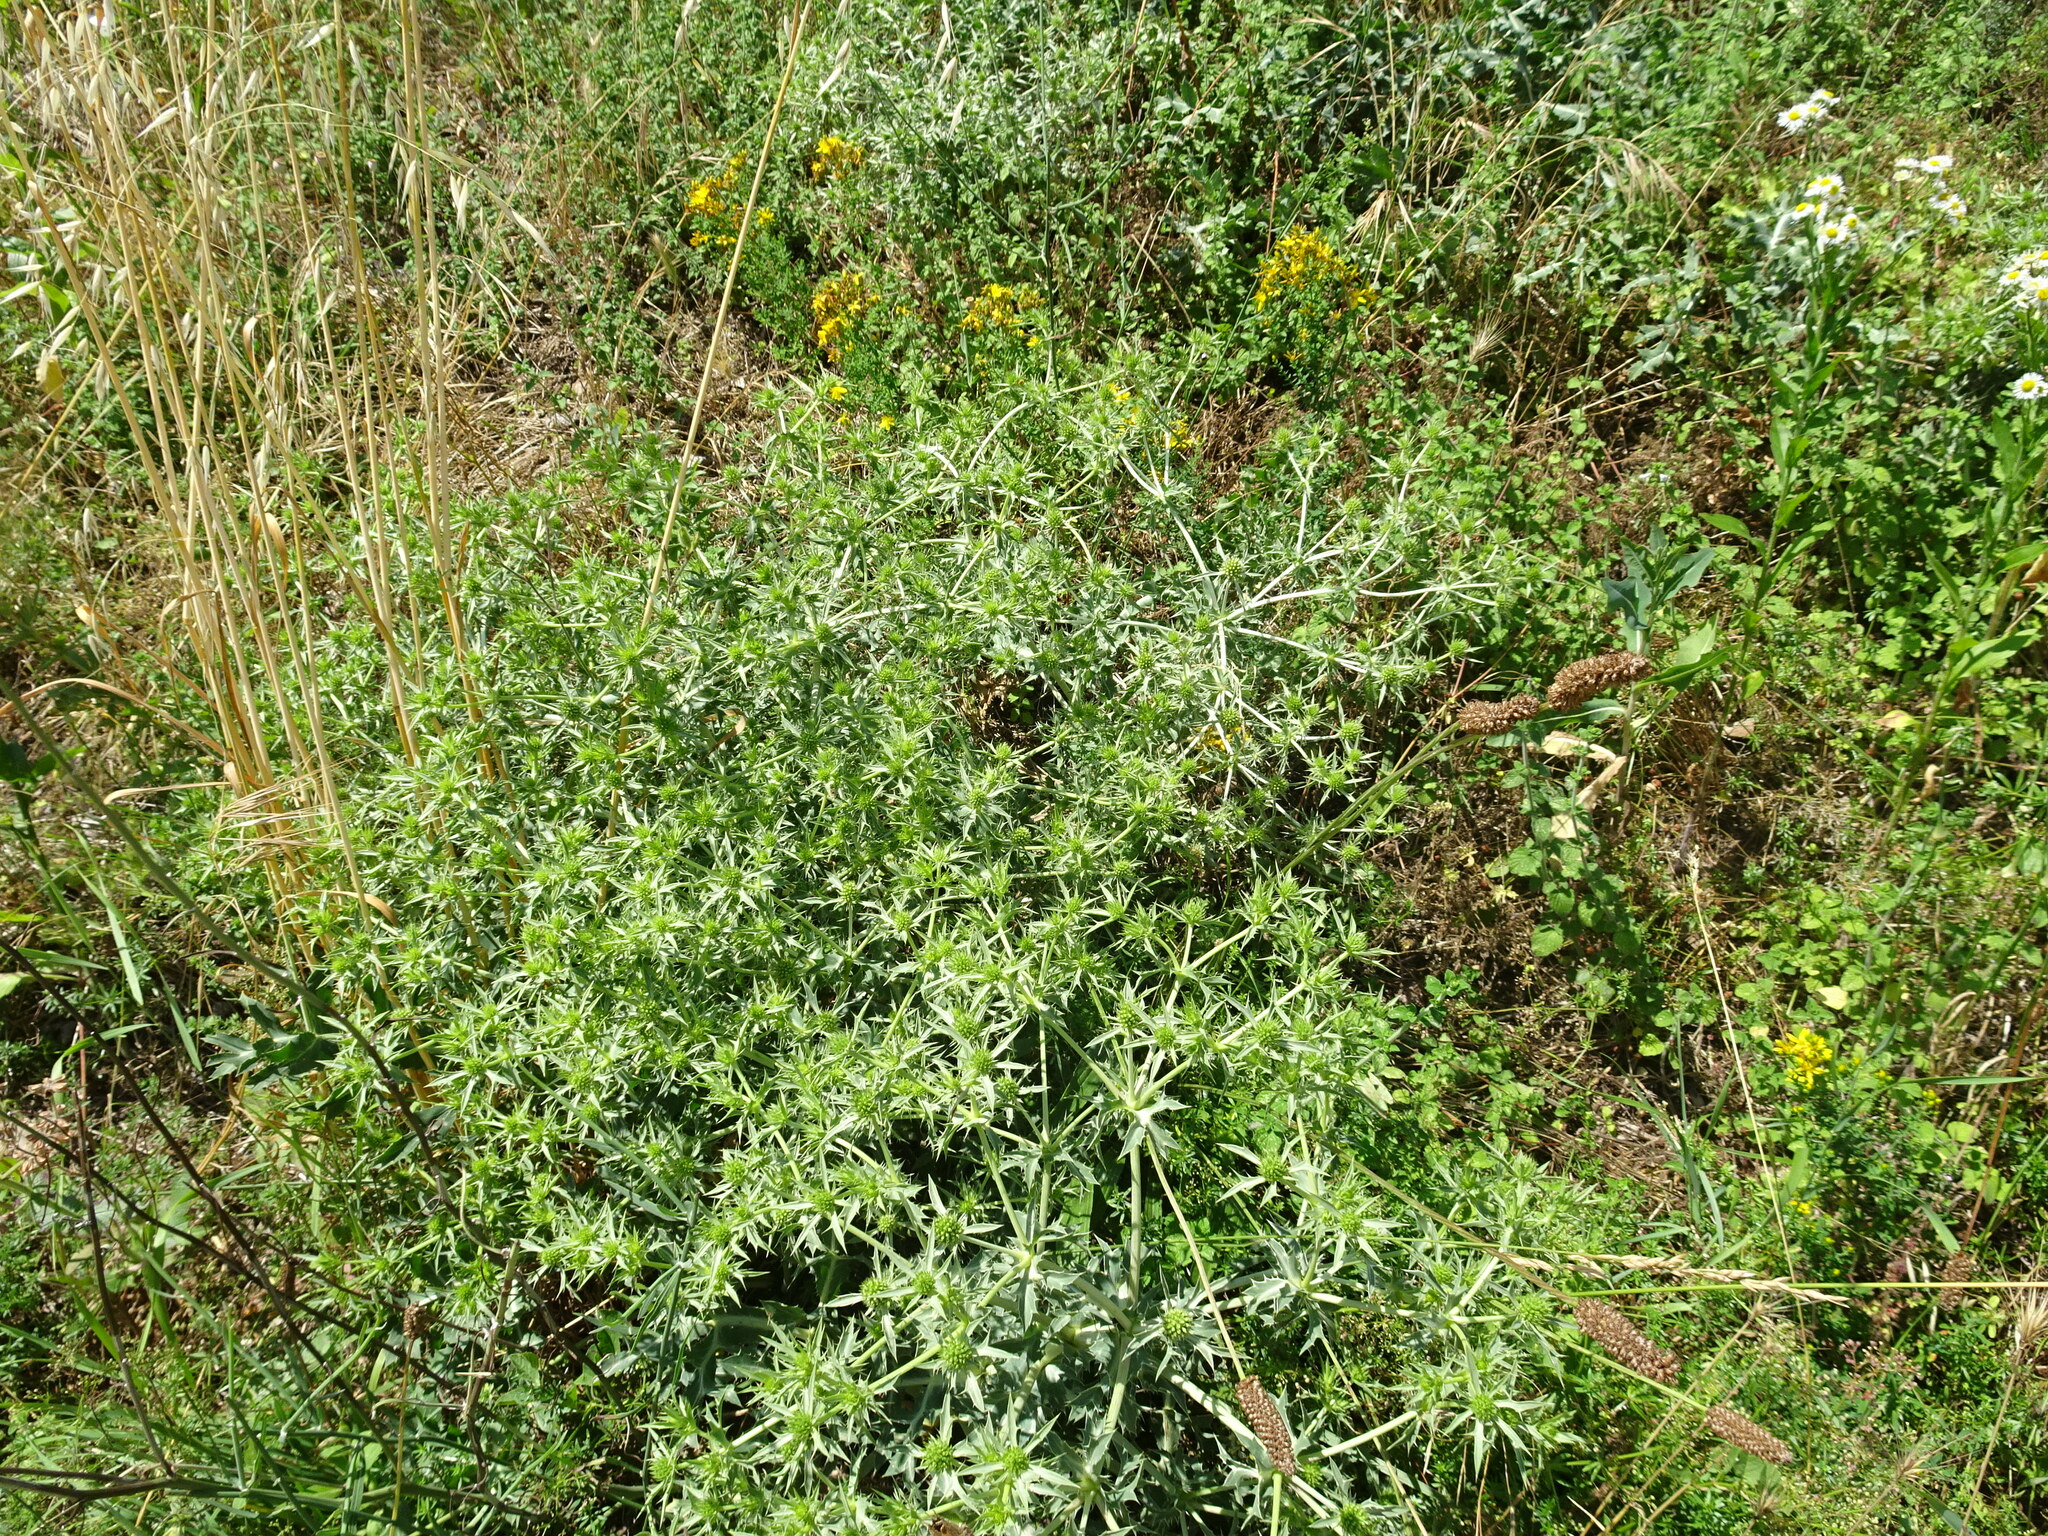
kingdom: Plantae
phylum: Tracheophyta
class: Magnoliopsida
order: Apiales
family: Apiaceae
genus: Eryngium
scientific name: Eryngium campestre
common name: Field eryngo
